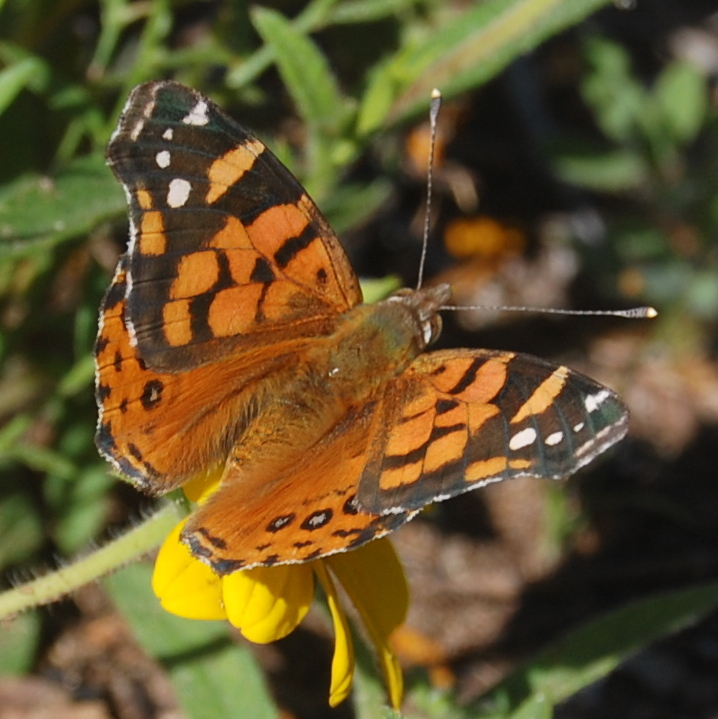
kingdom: Animalia
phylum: Arthropoda
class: Insecta
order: Lepidoptera
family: Nymphalidae
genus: Vanessa
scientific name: Vanessa carye
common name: Subtropical lady
